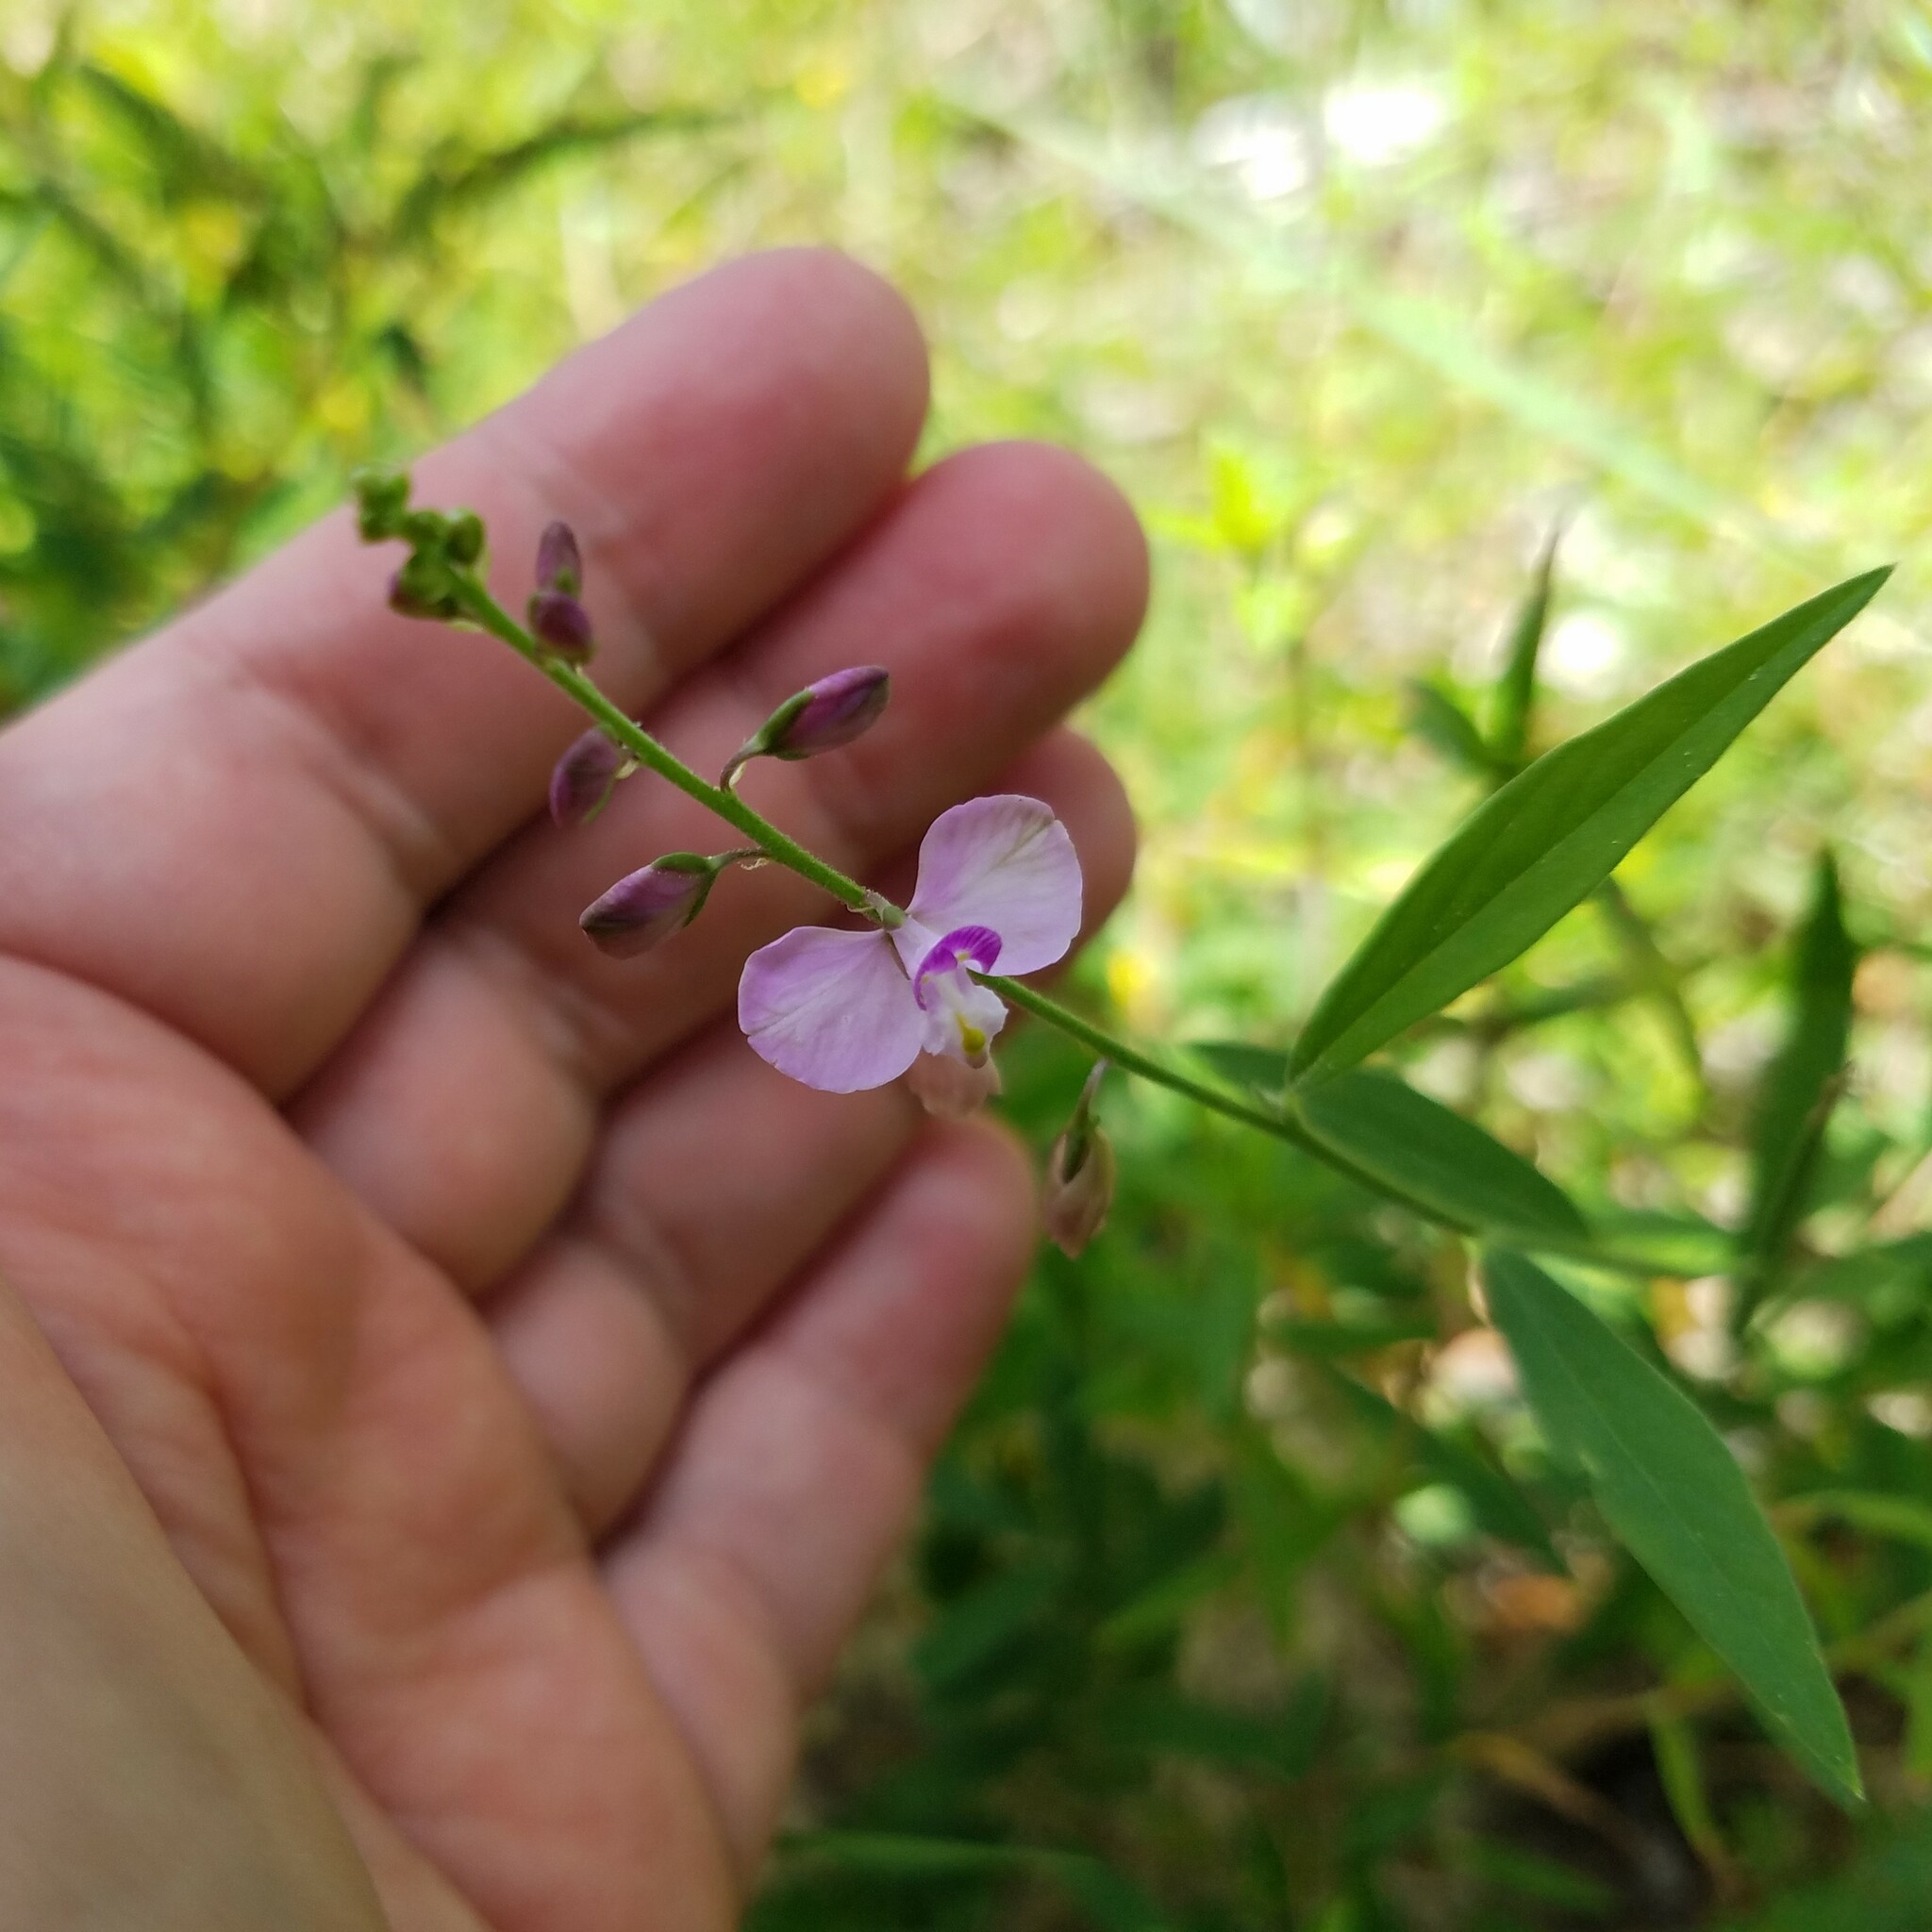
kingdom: Plantae
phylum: Tracheophyta
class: Magnoliopsida
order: Fabales
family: Polygalaceae
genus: Asemeia
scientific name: Asemeia grandiflora
